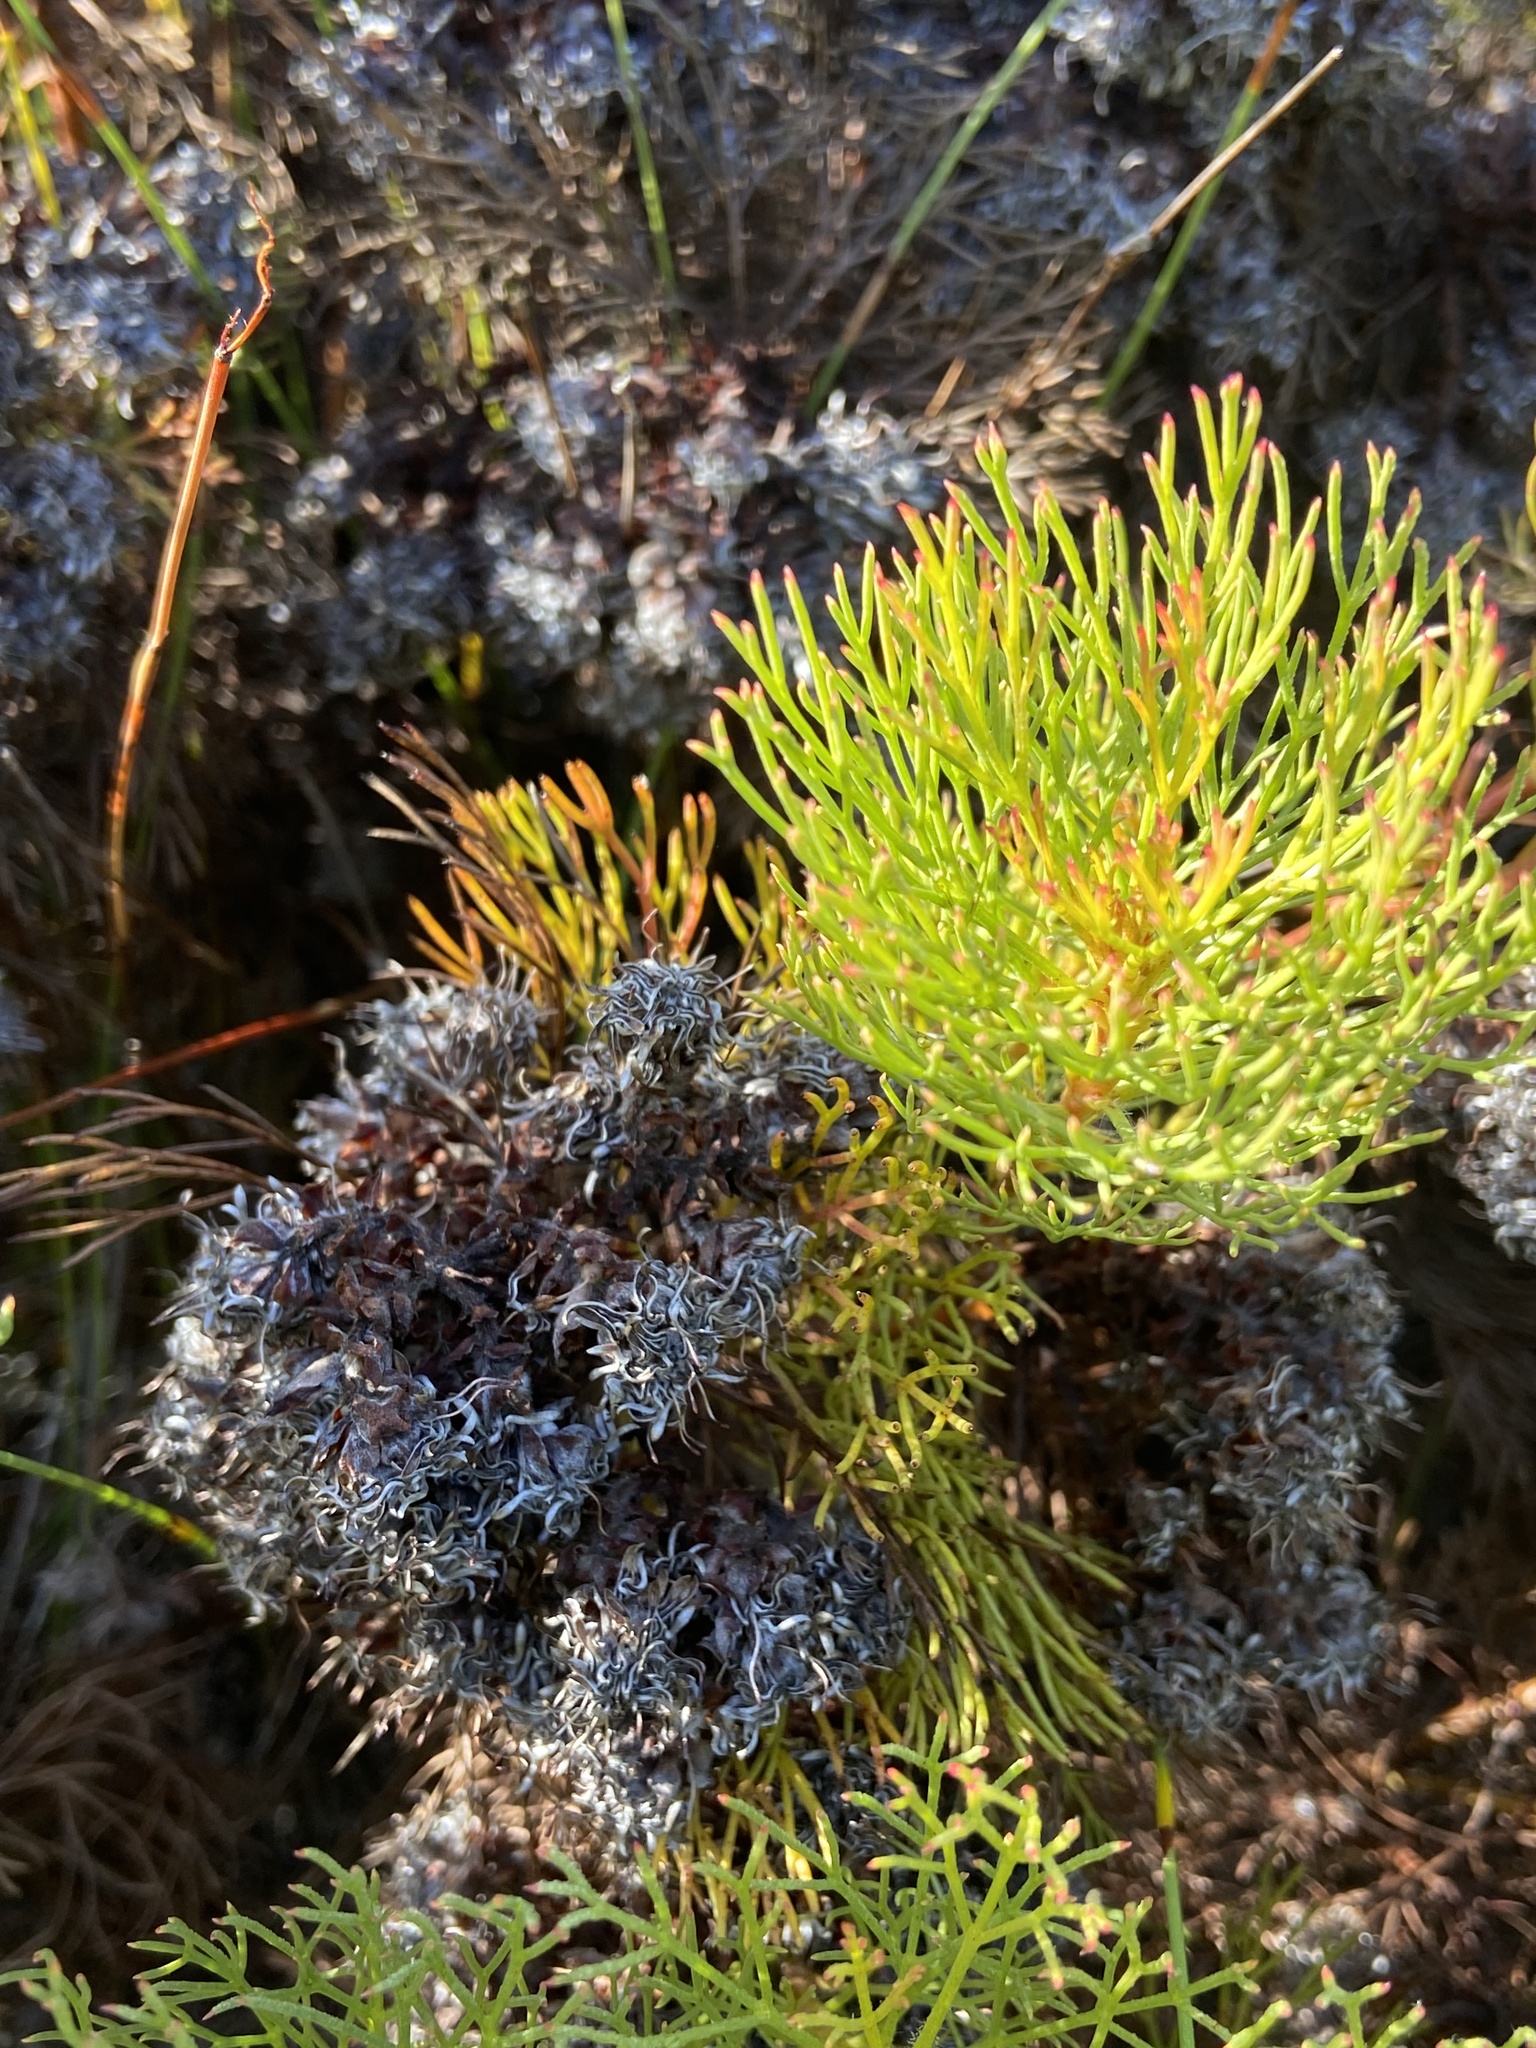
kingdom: Plantae
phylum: Tracheophyta
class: Magnoliopsida
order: Proteales
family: Proteaceae
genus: Serruria
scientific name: Serruria glomerata
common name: Cluster spiderhead
